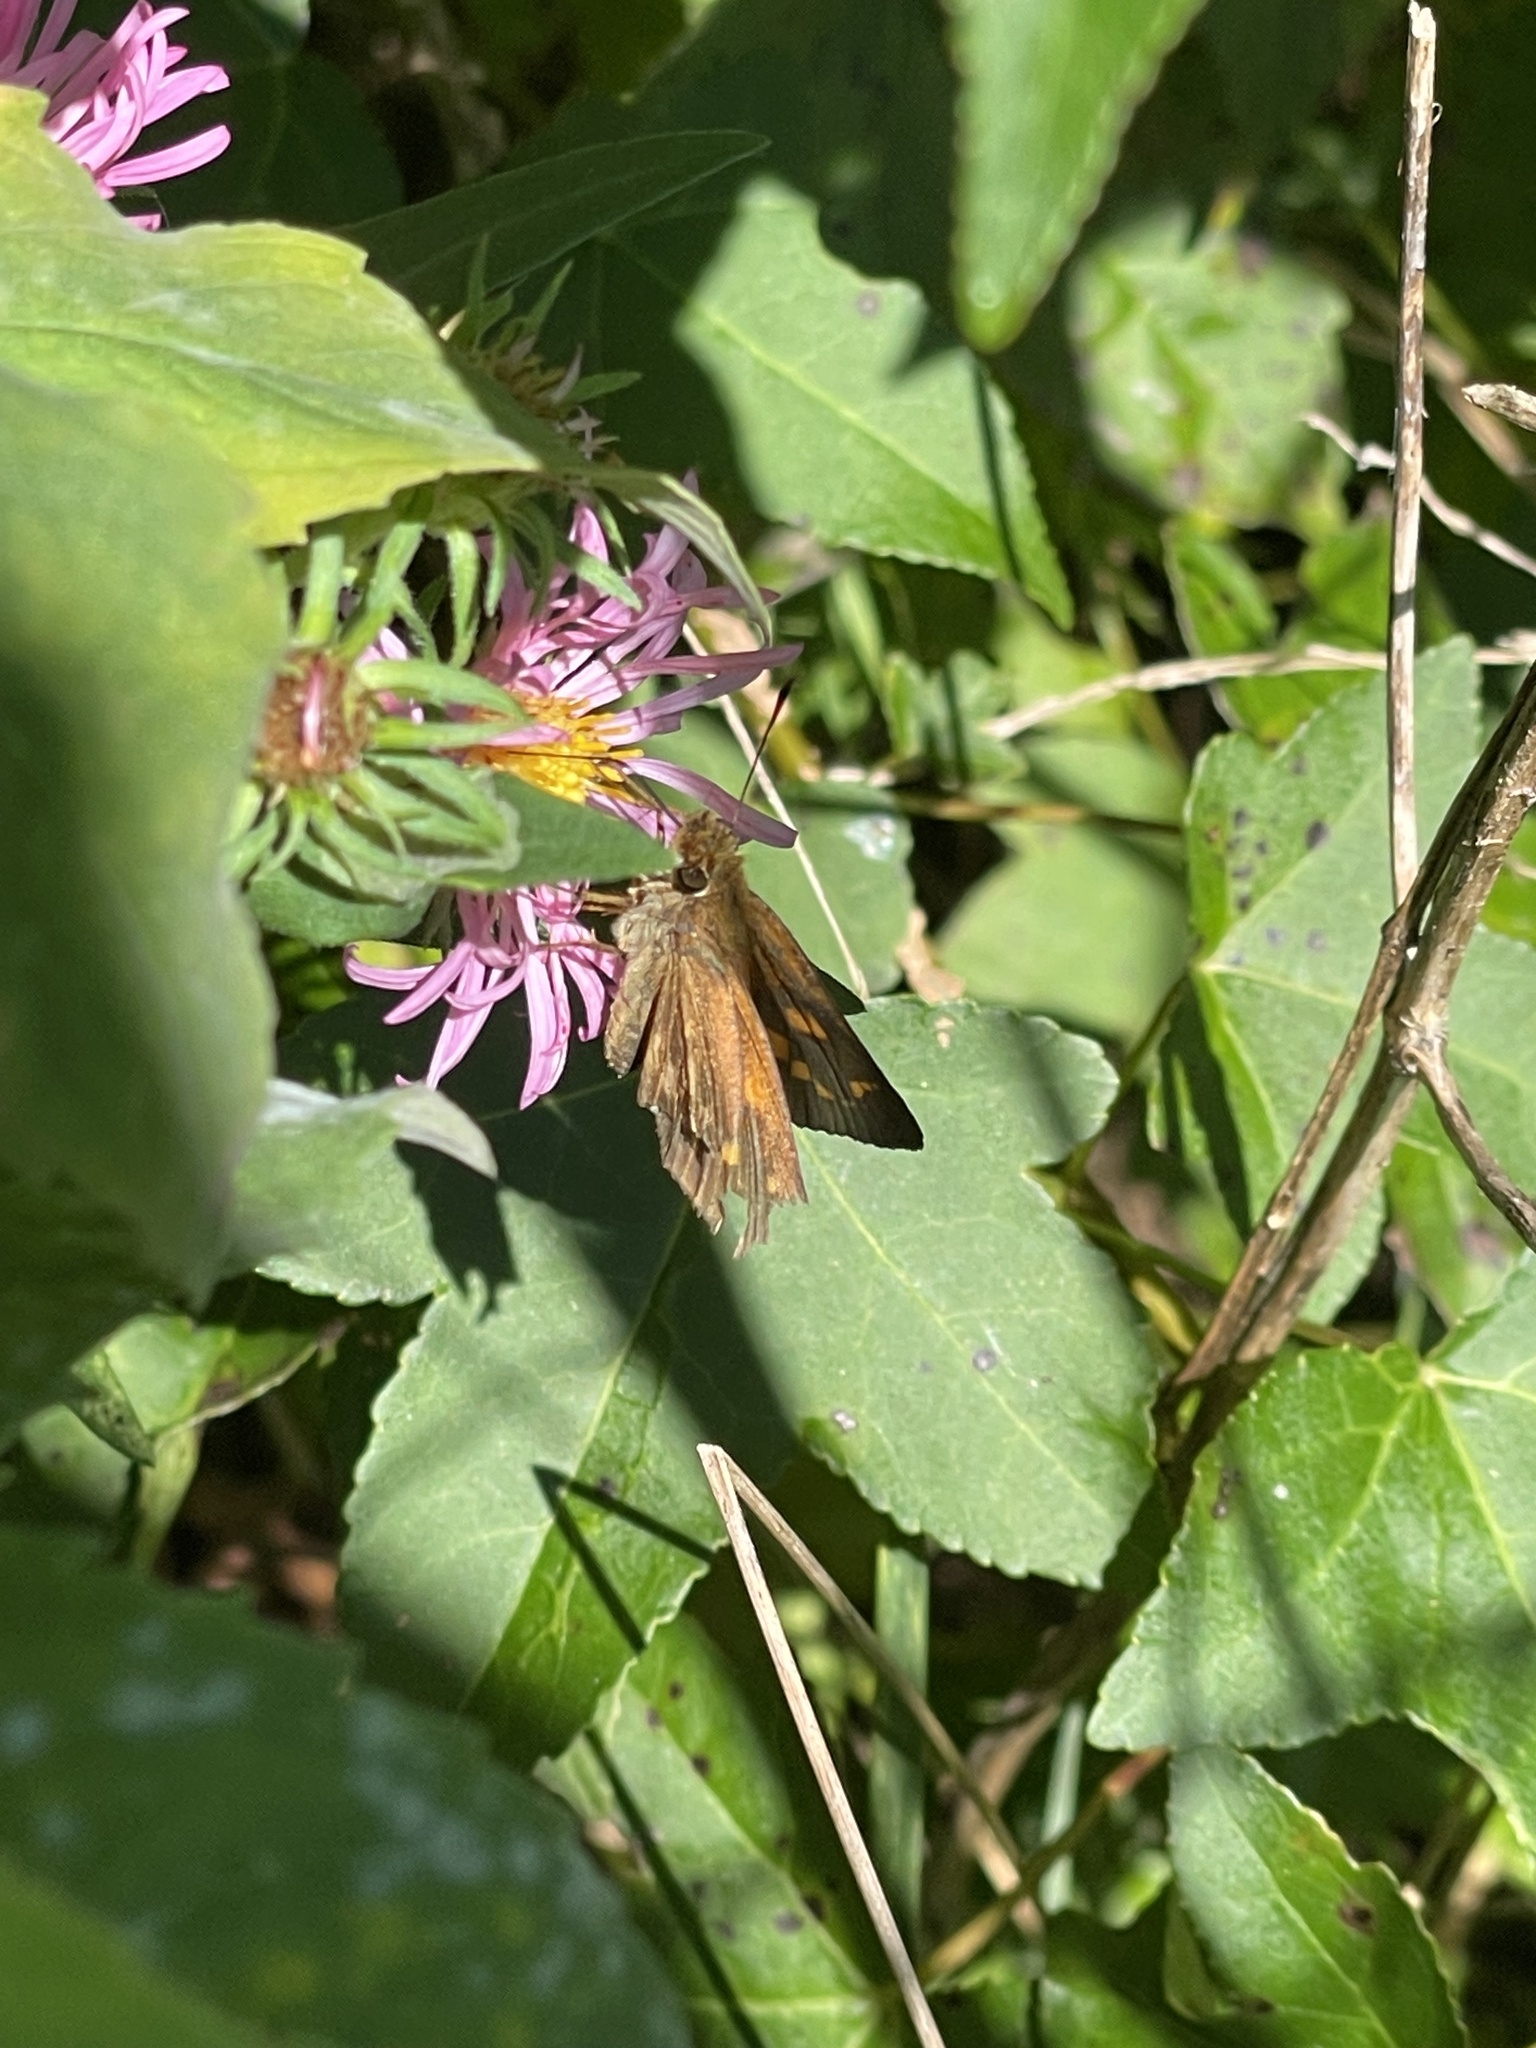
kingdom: Animalia
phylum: Arthropoda
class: Insecta
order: Lepidoptera
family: Hesperiidae
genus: Poanes
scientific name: Poanes viator
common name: Broad-winged skipper
